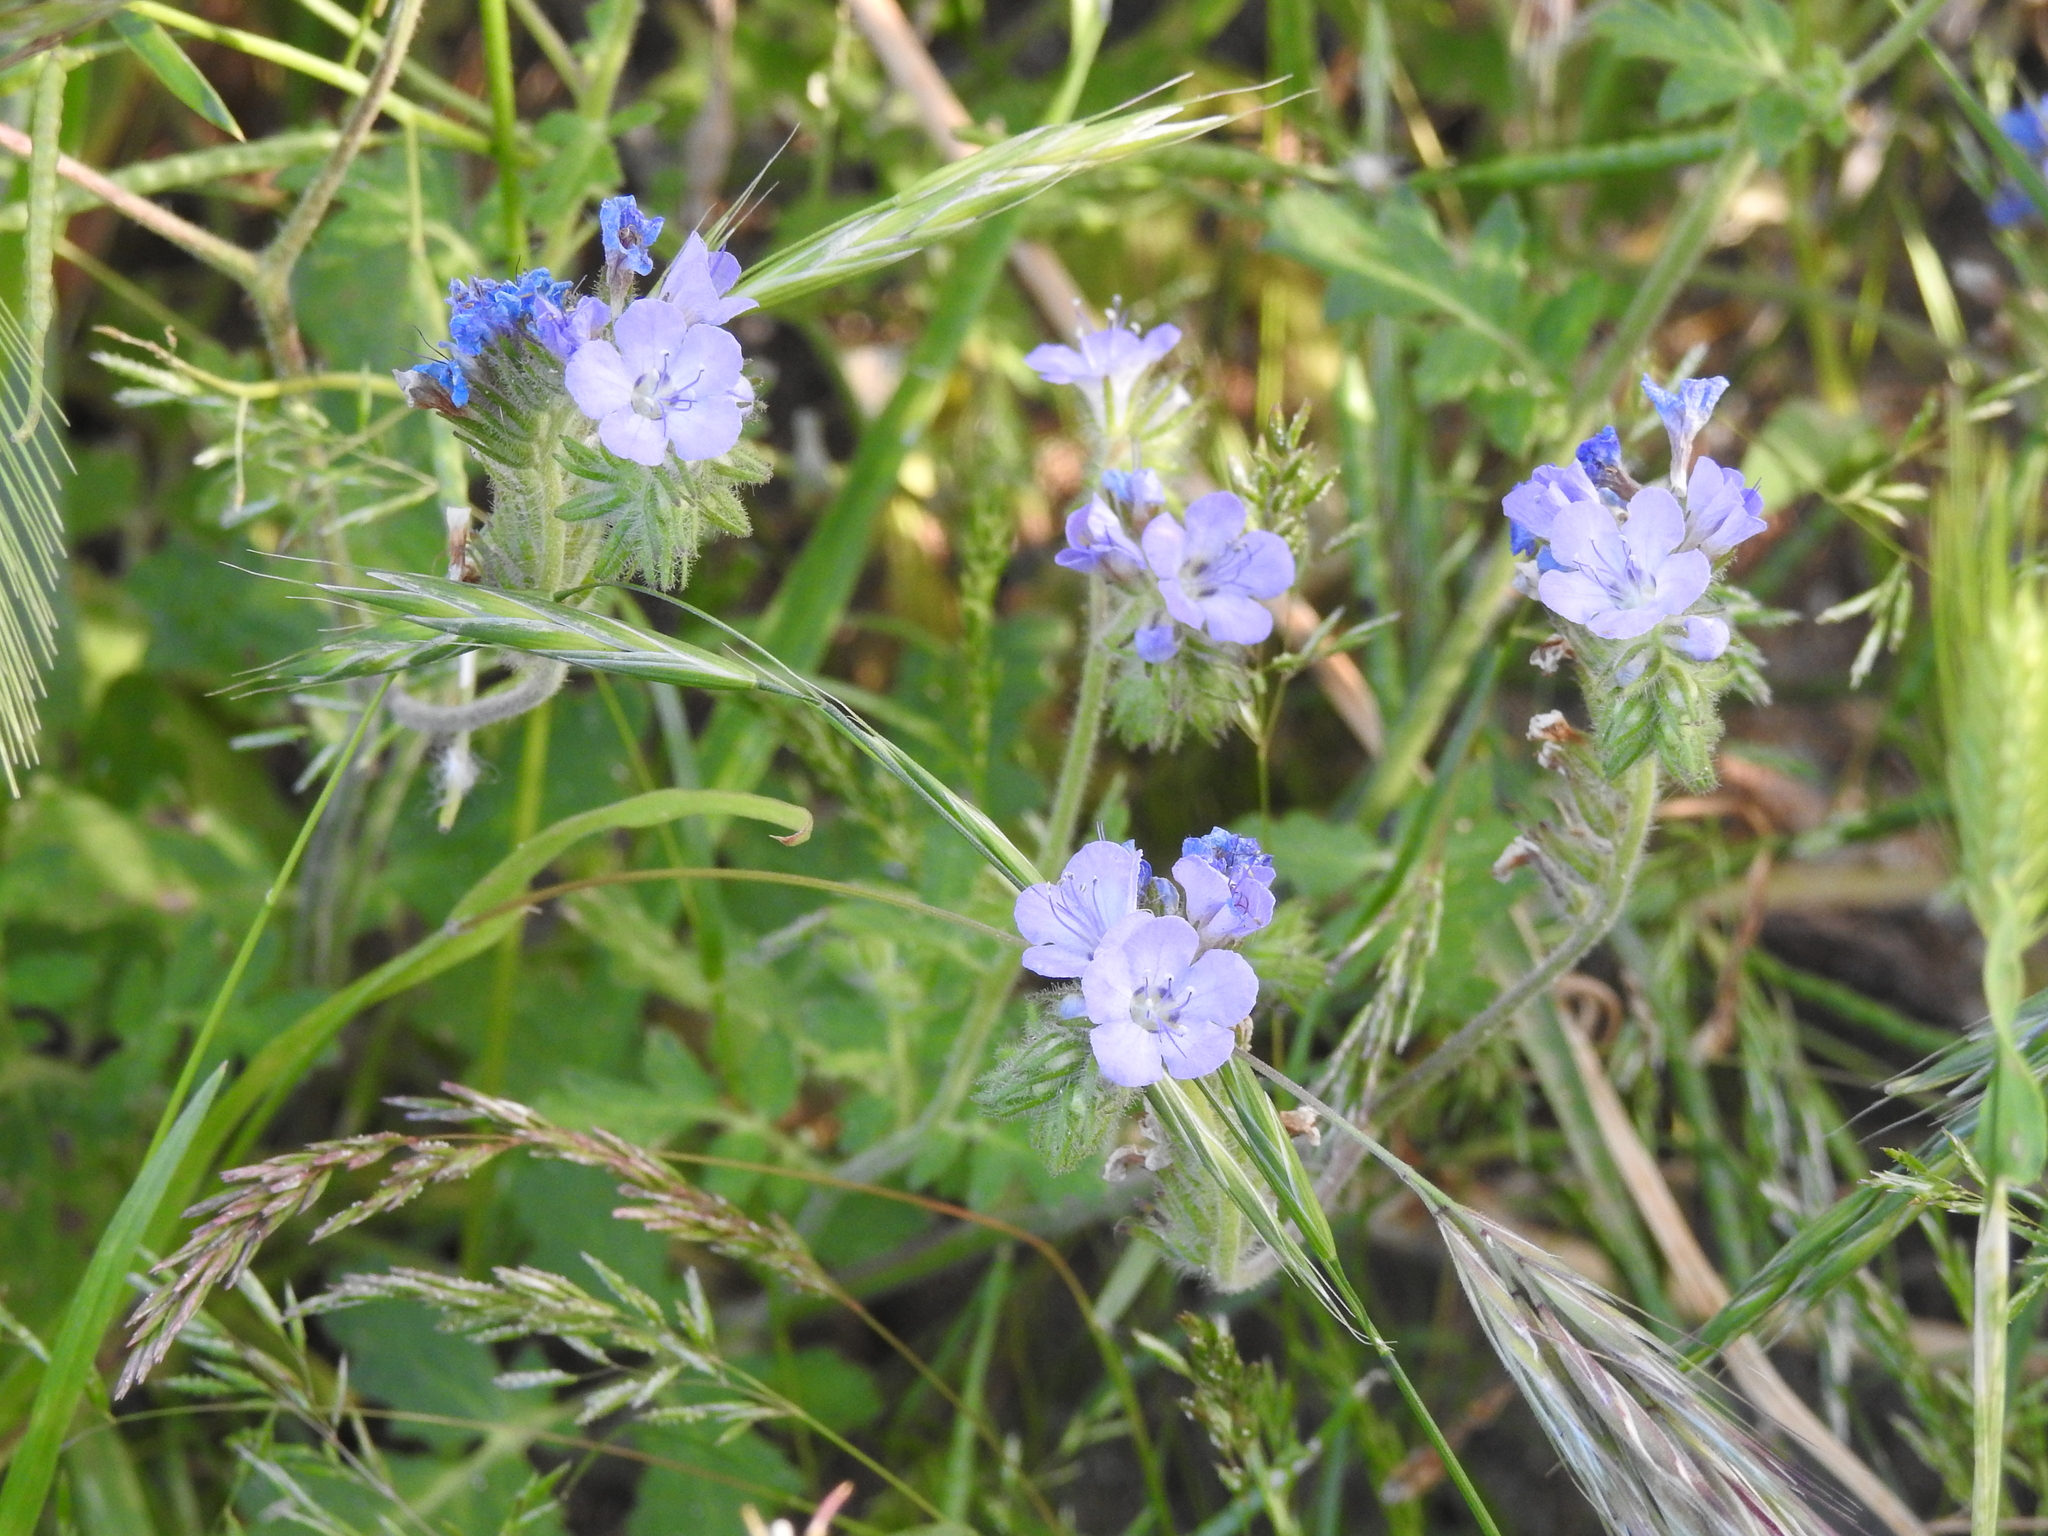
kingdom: Plantae
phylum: Tracheophyta
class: Magnoliopsida
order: Boraginales
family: Hydrophyllaceae
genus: Phacelia
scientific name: Phacelia distans
